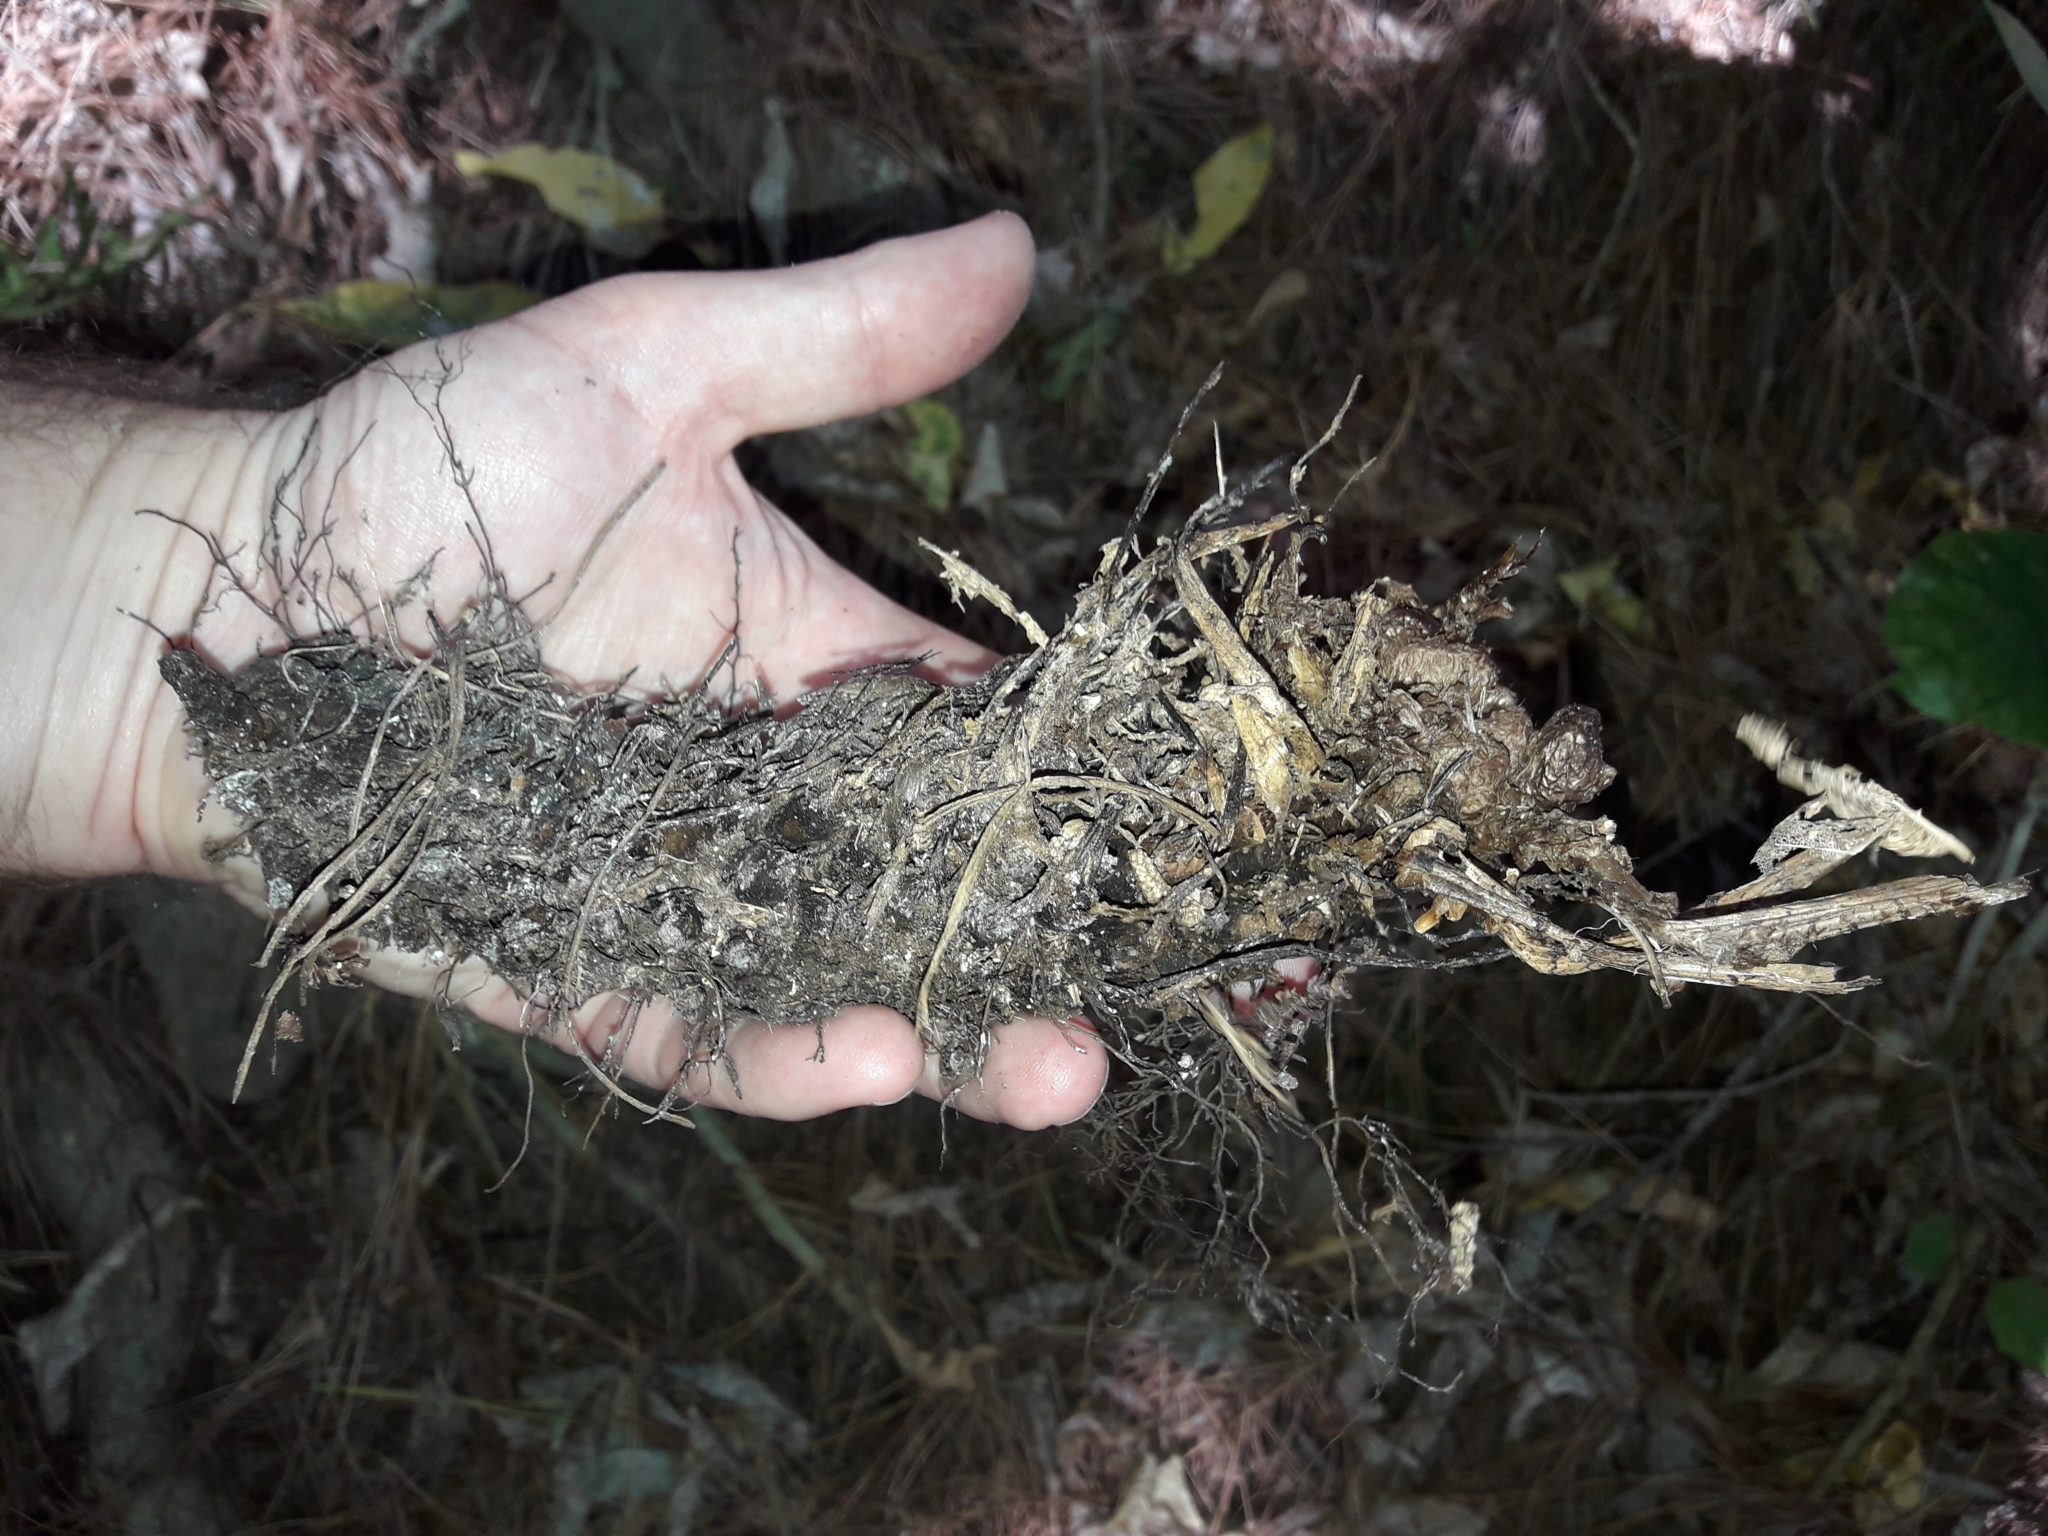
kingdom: Plantae
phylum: Tracheophyta
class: Polypodiopsida
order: Polypodiales
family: Dryopteridaceae
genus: Dryopteris
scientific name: Dryopteris filix-mas
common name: Male fern
